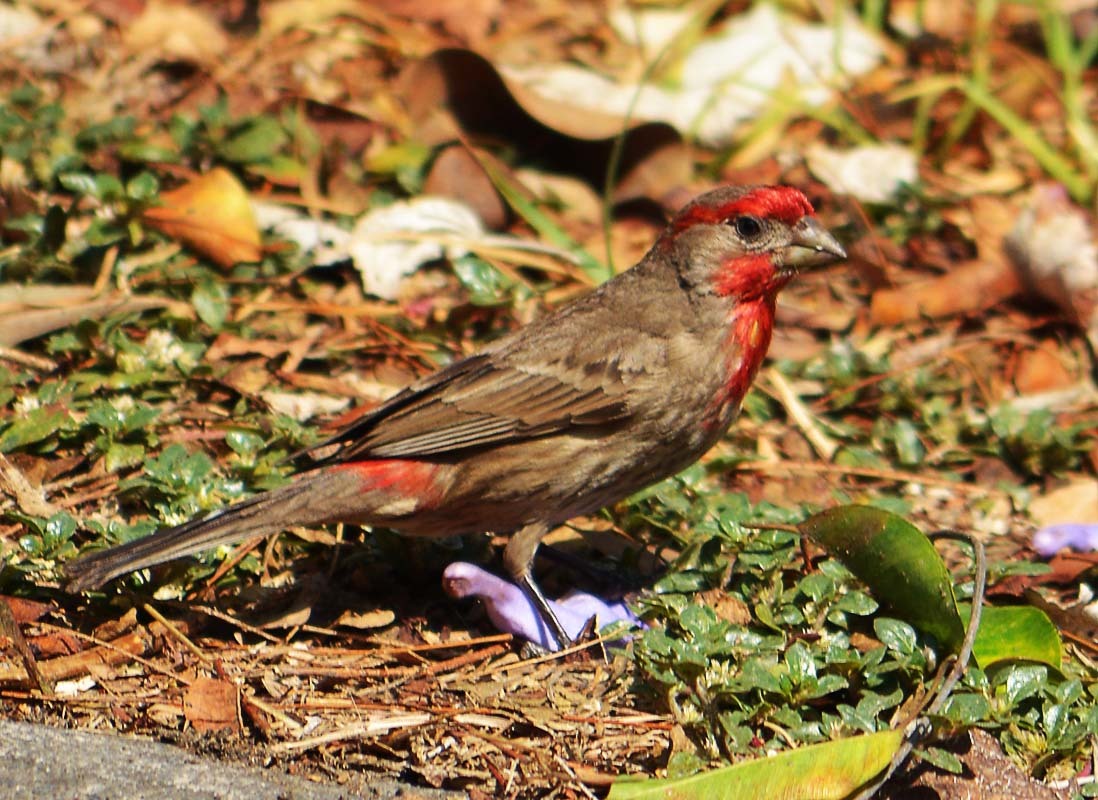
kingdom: Animalia
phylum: Chordata
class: Aves
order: Passeriformes
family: Fringillidae
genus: Haemorhous
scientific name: Haemorhous mexicanus
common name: House finch
